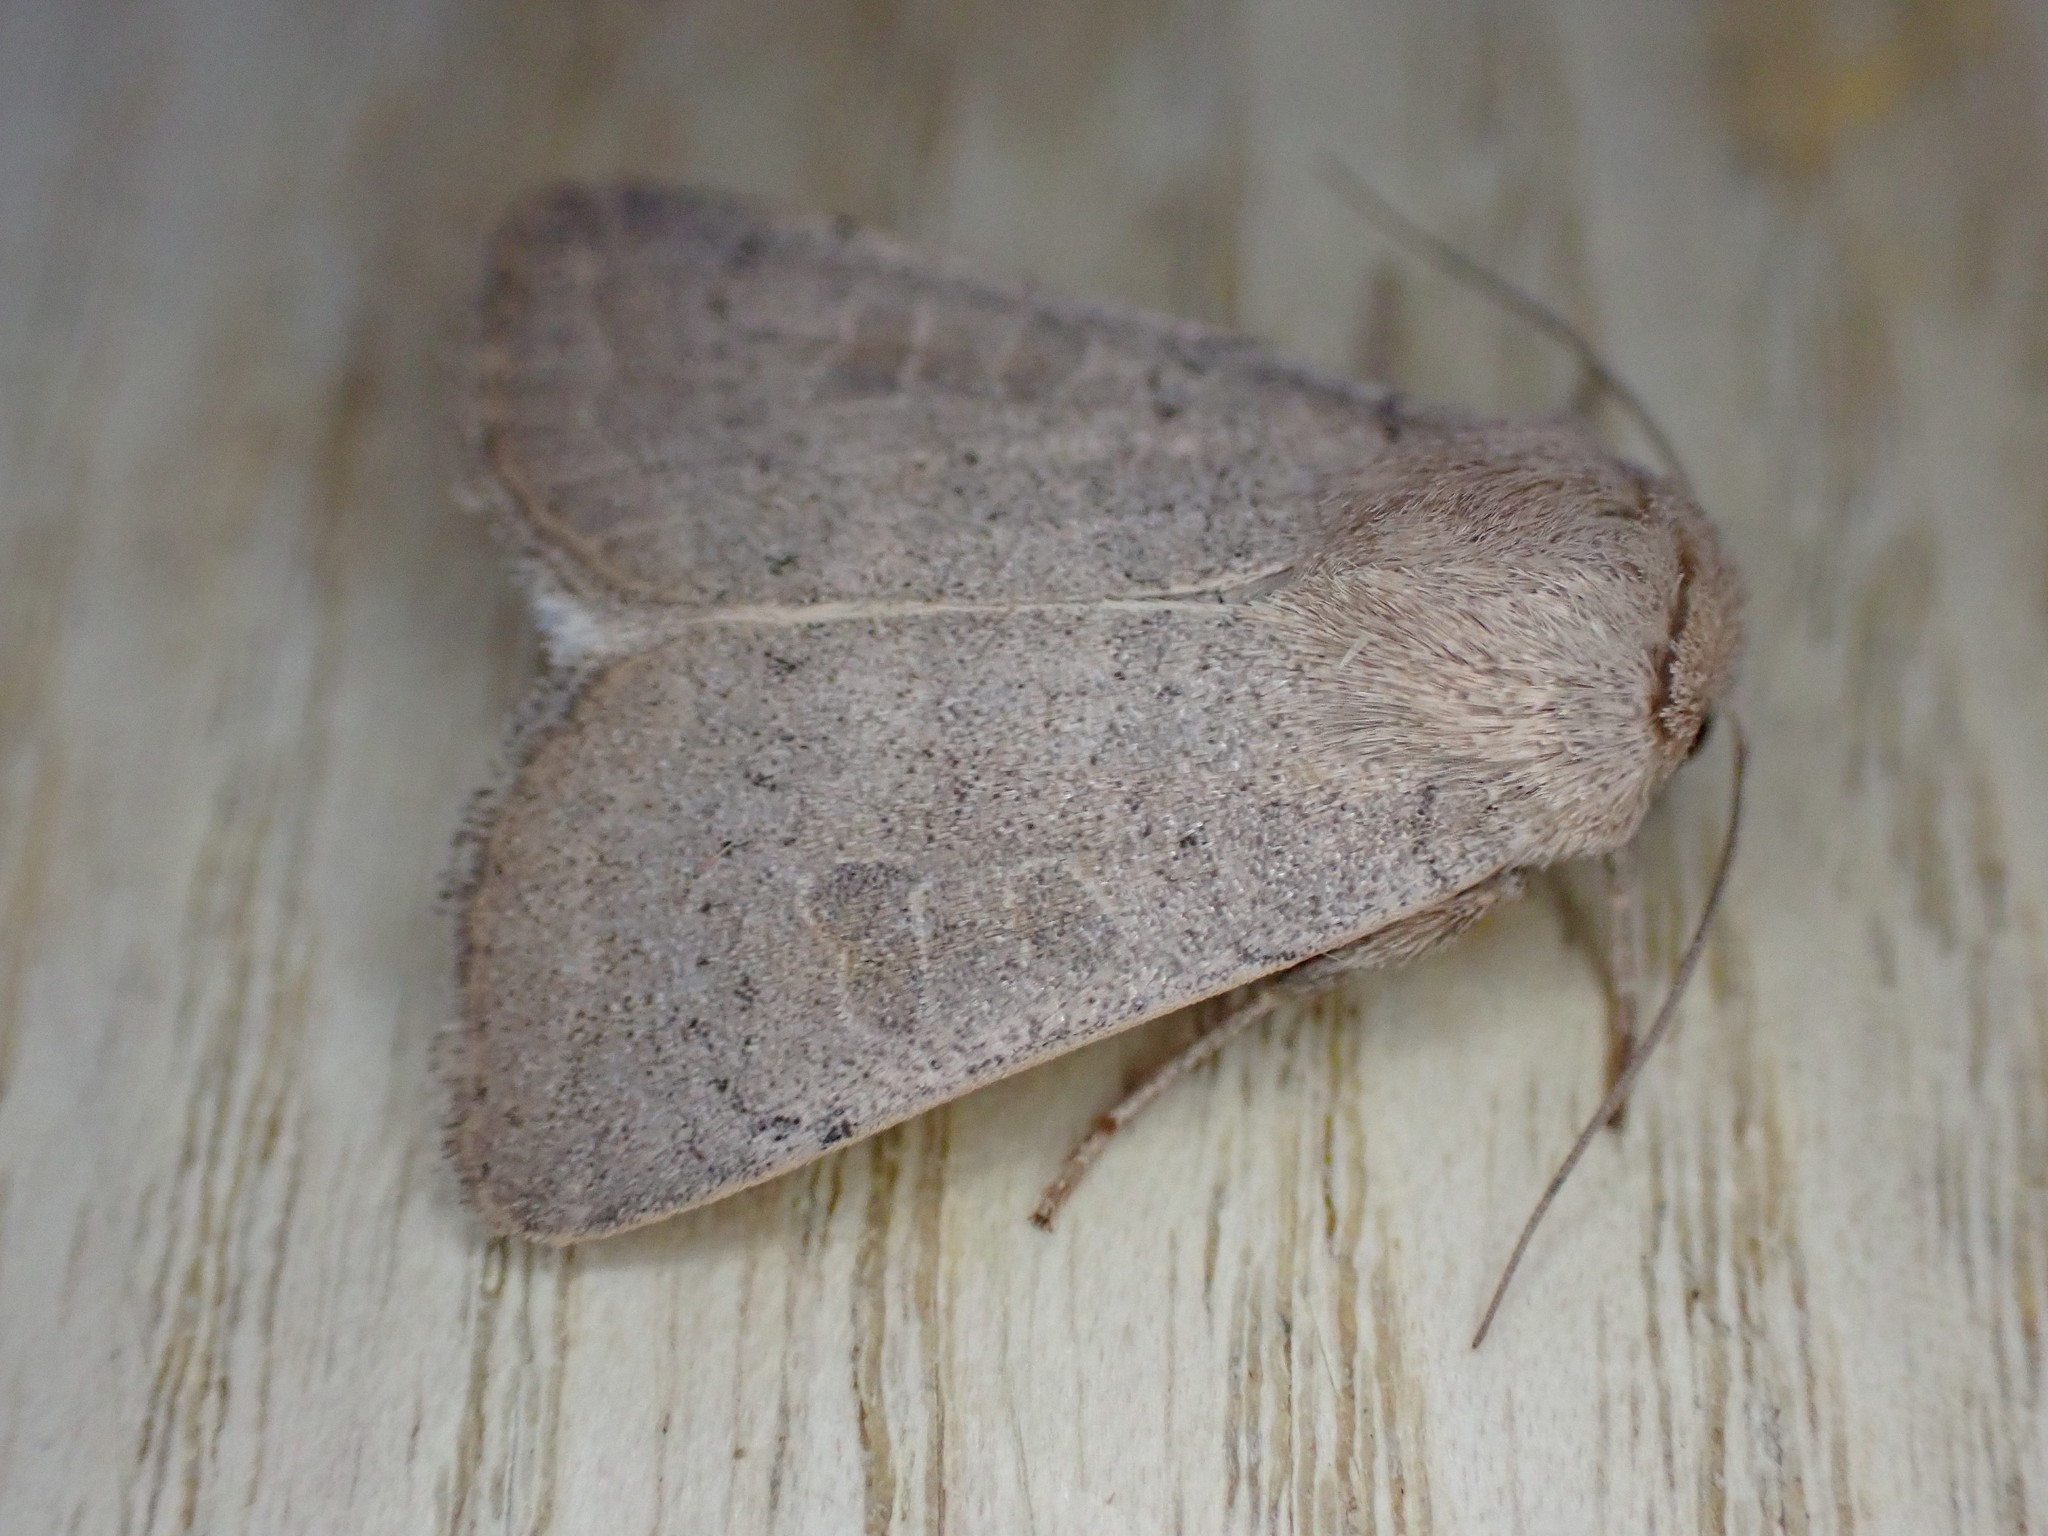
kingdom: Animalia
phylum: Arthropoda
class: Insecta
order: Lepidoptera
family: Noctuidae
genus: Hoplodrina
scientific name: Hoplodrina ambigua
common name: Vine's rustic
